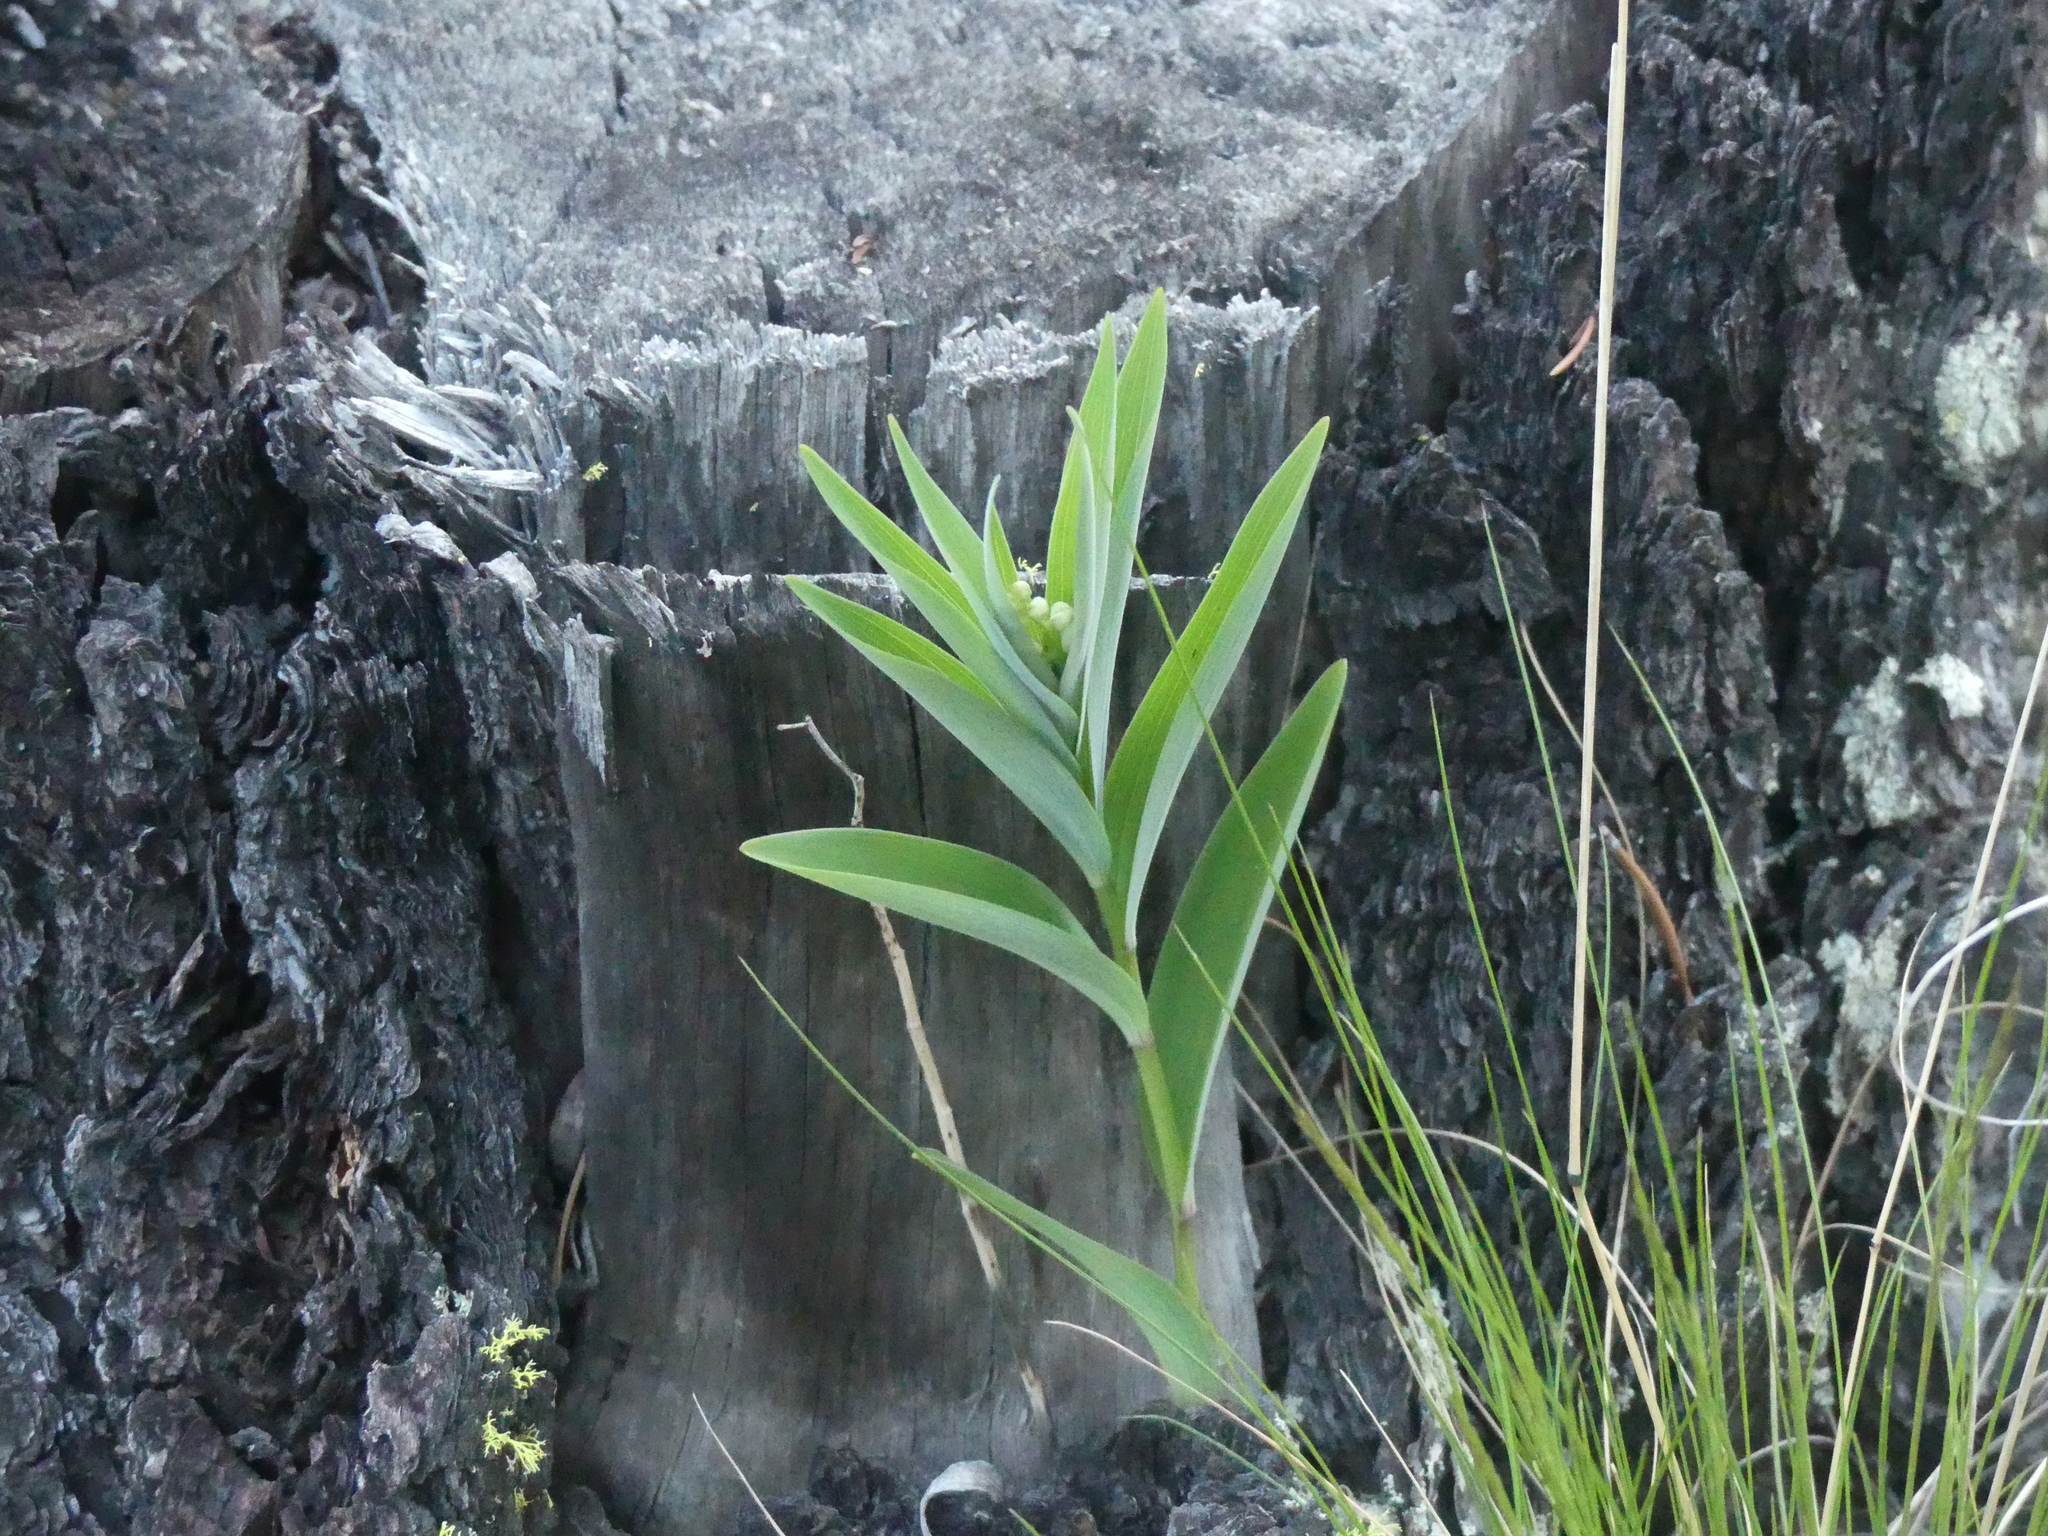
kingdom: Plantae
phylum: Tracheophyta
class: Liliopsida
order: Asparagales
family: Asparagaceae
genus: Maianthemum
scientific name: Maianthemum stellatum
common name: Little false solomon's seal
